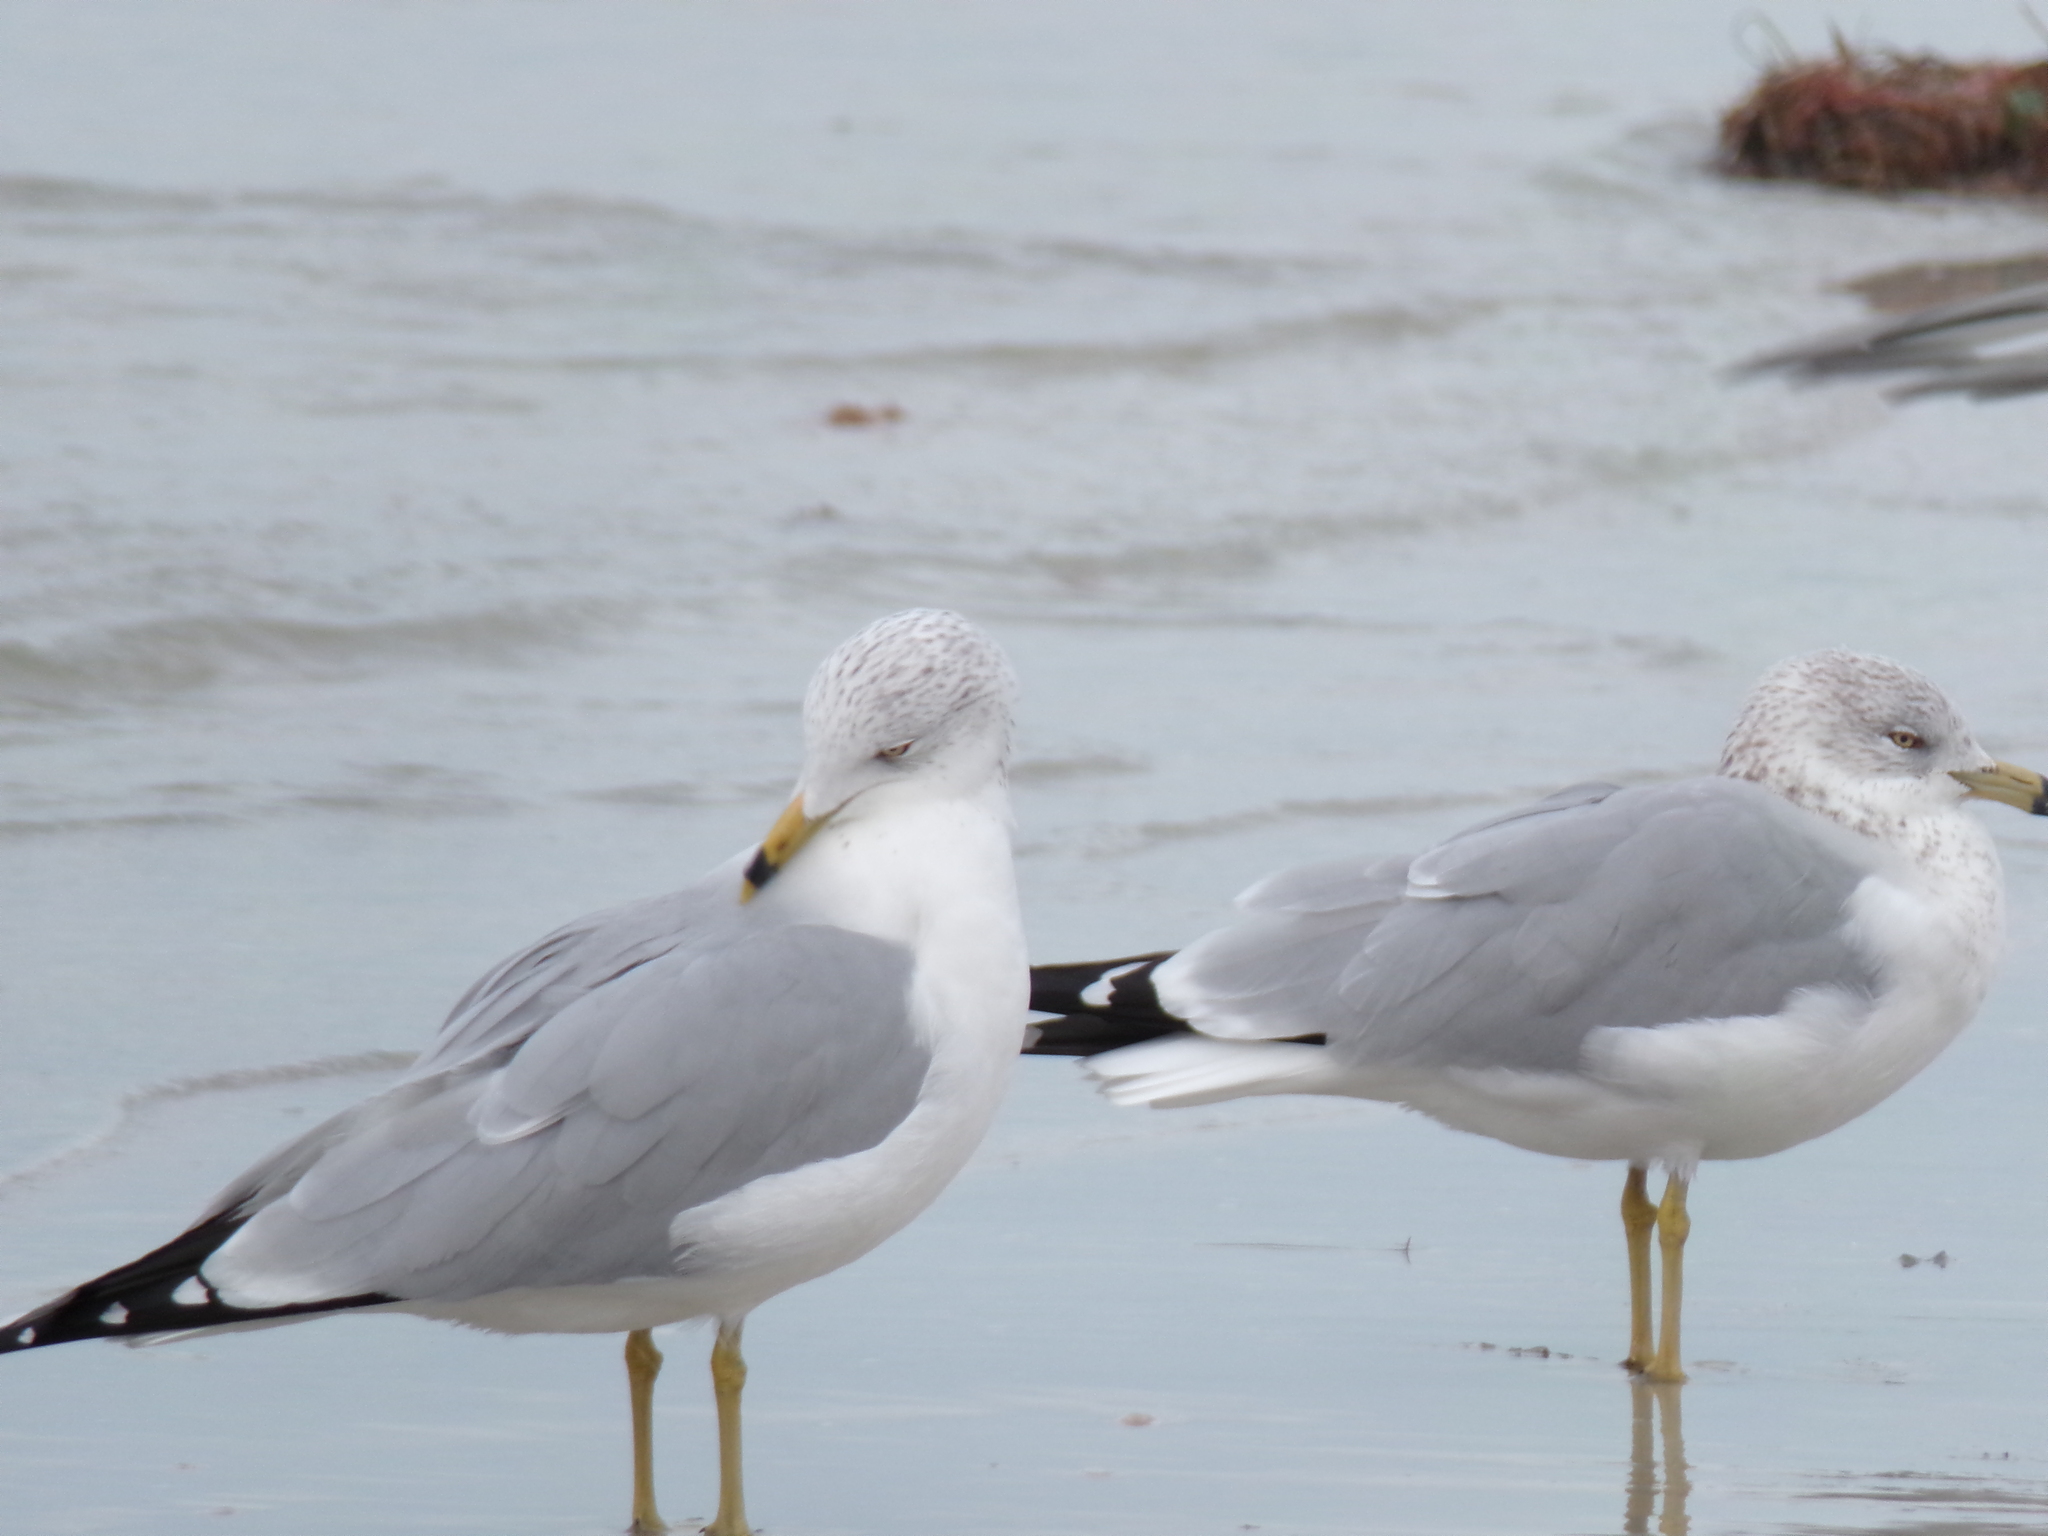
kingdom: Animalia
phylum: Chordata
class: Aves
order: Charadriiformes
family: Laridae
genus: Larus
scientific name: Larus delawarensis
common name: Ring-billed gull
